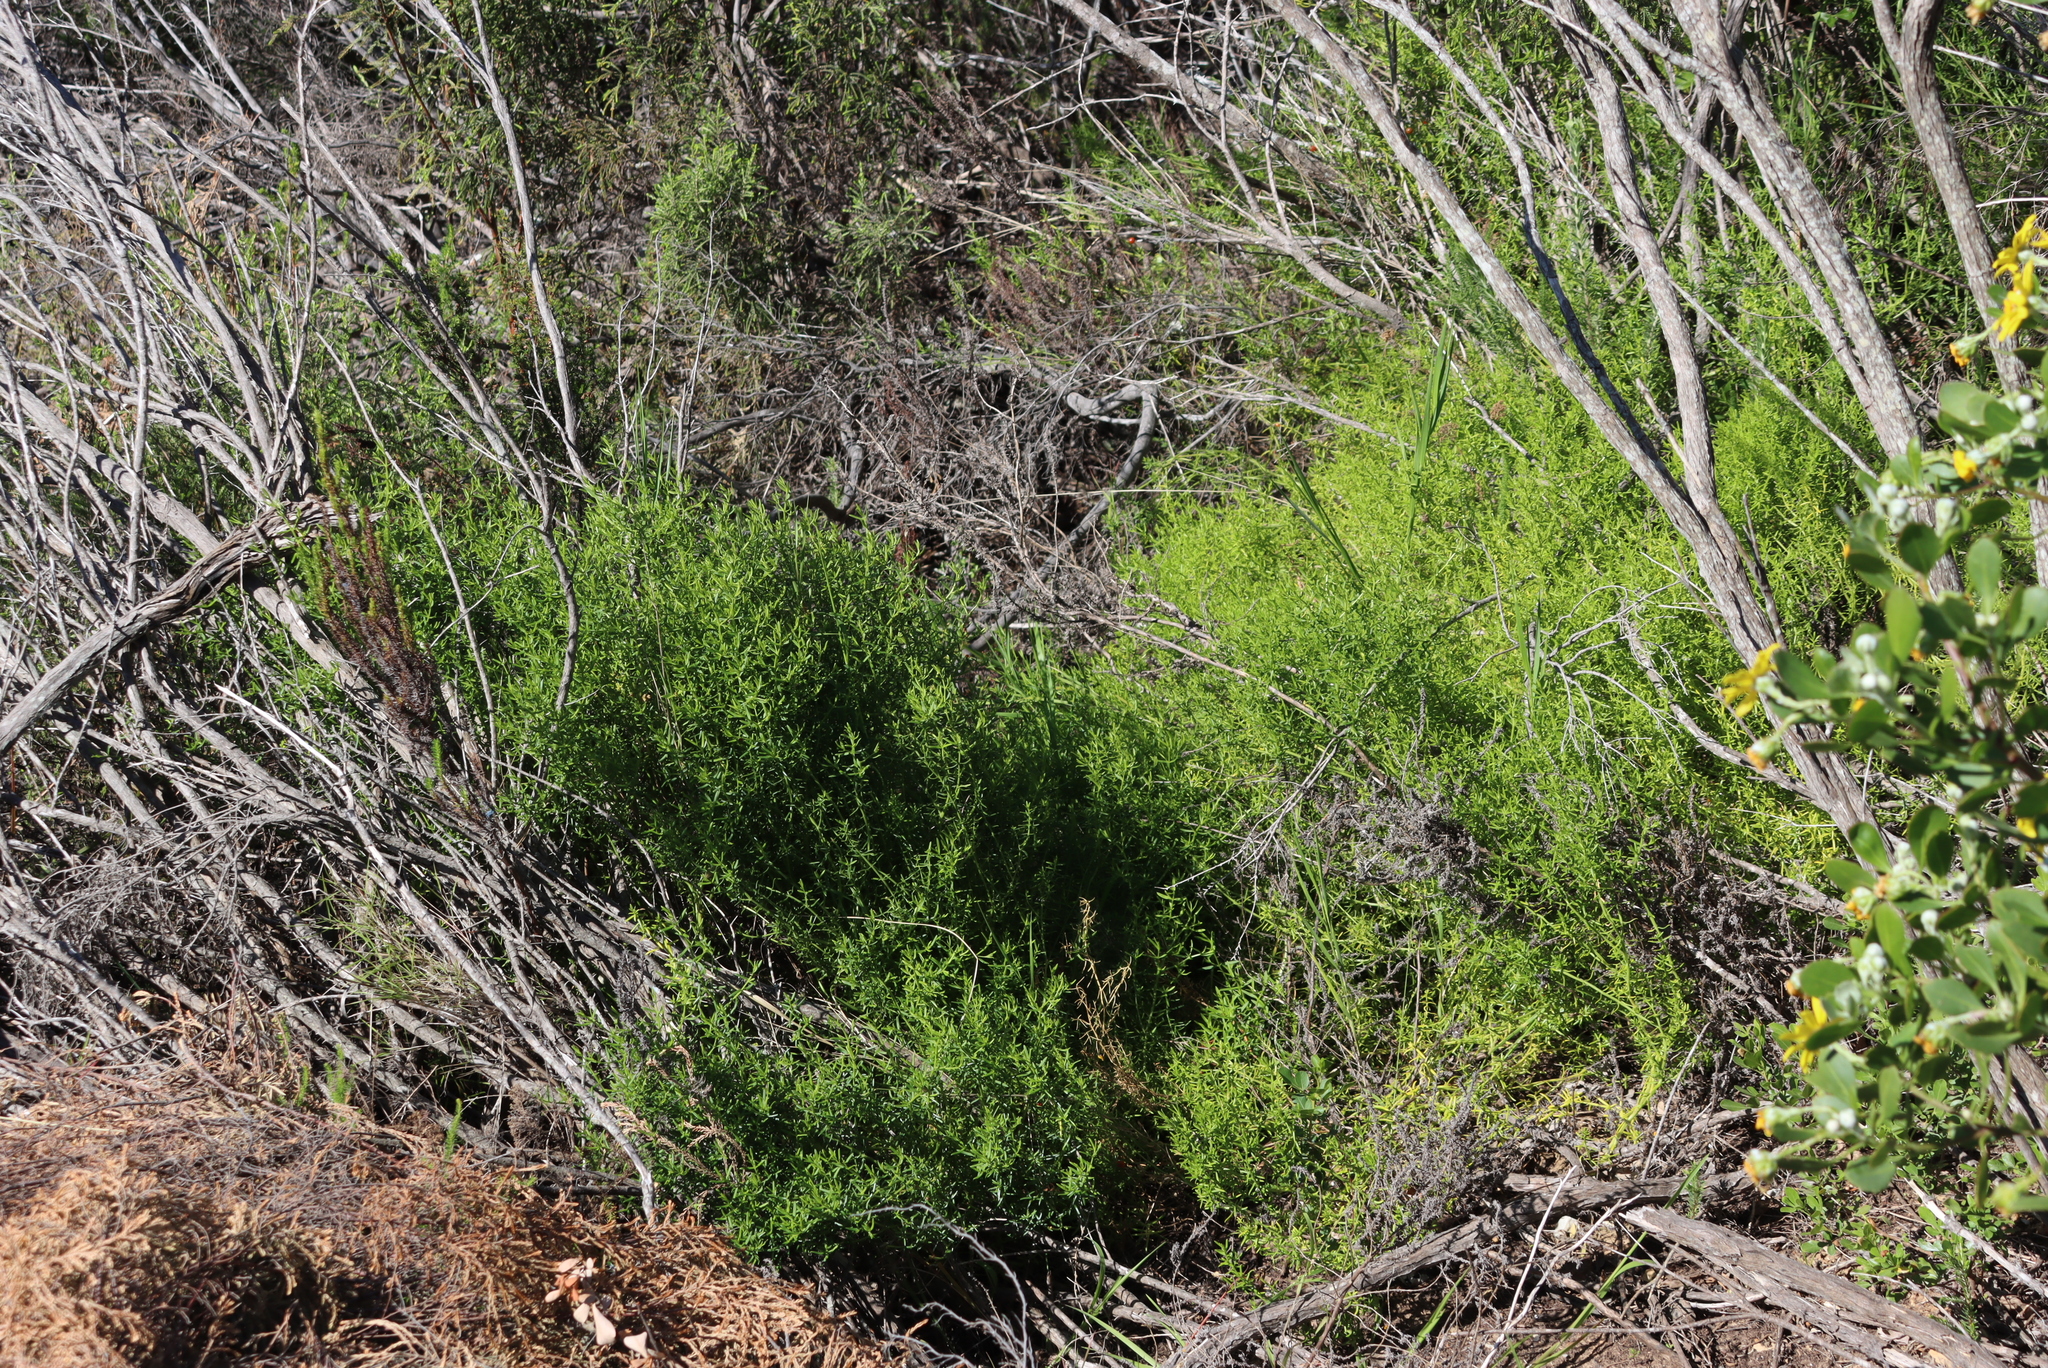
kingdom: Plantae
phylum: Tracheophyta
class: Magnoliopsida
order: Gentianales
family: Gentianaceae
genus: Chironia
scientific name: Chironia baccifera
